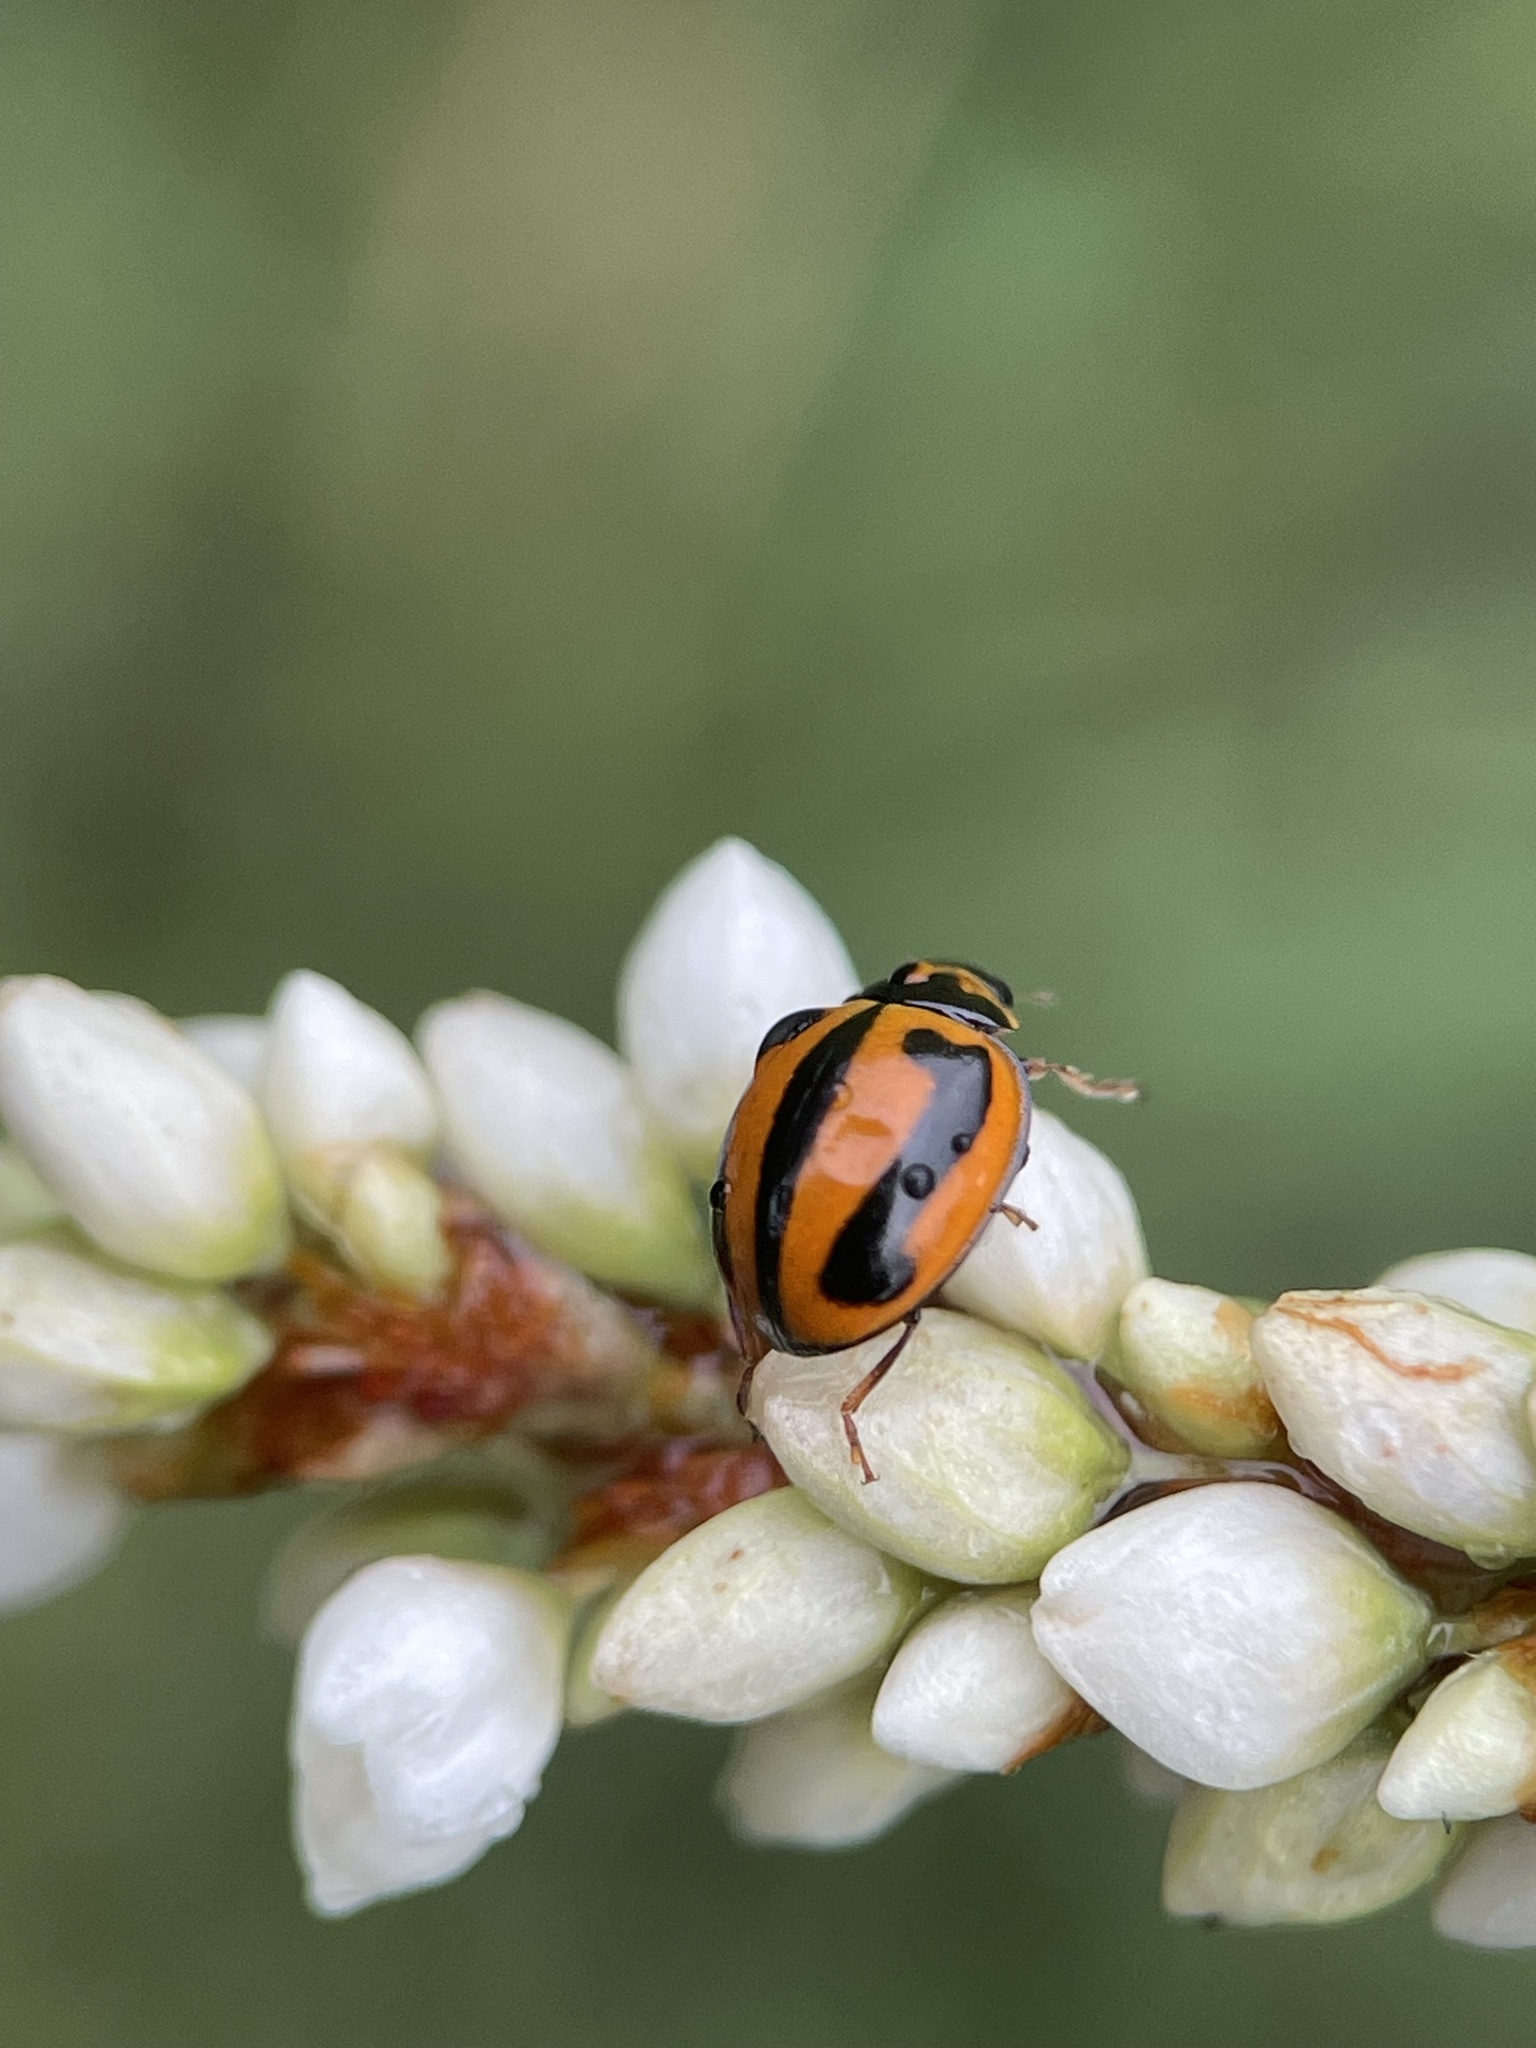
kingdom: Animalia
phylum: Arthropoda
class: Insecta
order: Coleoptera
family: Coccinellidae
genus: Micraspis
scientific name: Micraspis frenata
